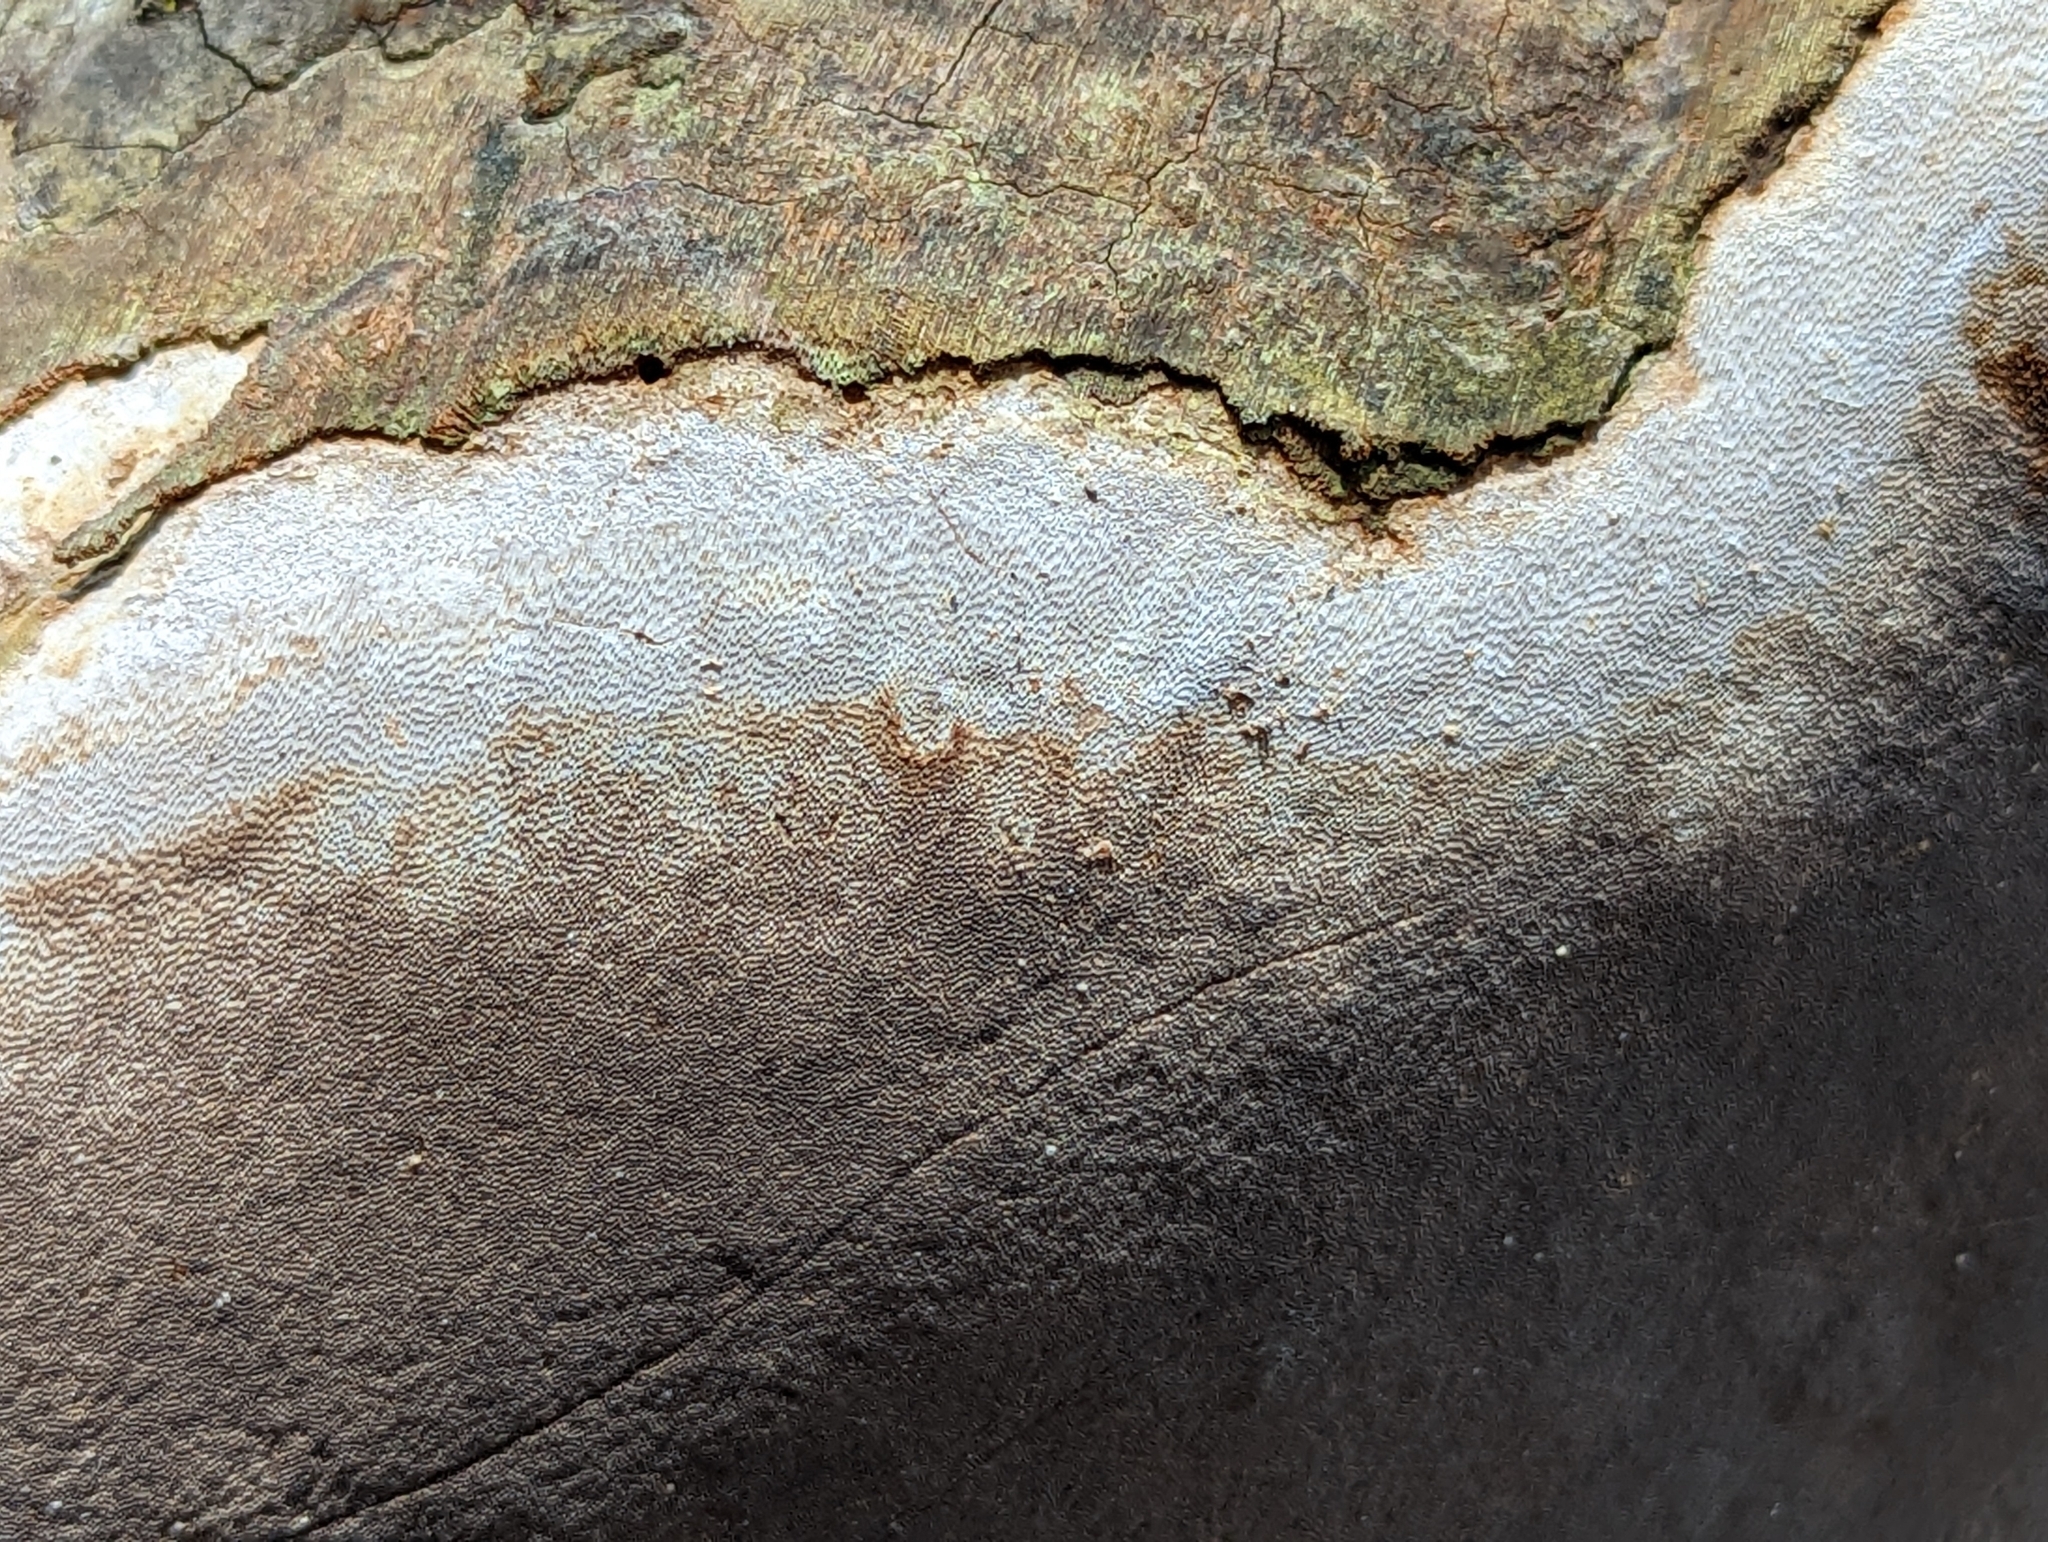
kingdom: Fungi
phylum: Basidiomycota
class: Agaricomycetes
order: Hymenochaetales
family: Hymenochaetaceae
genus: Fomitiporia
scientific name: Fomitiporia punctata
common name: Elbowpatch crust
